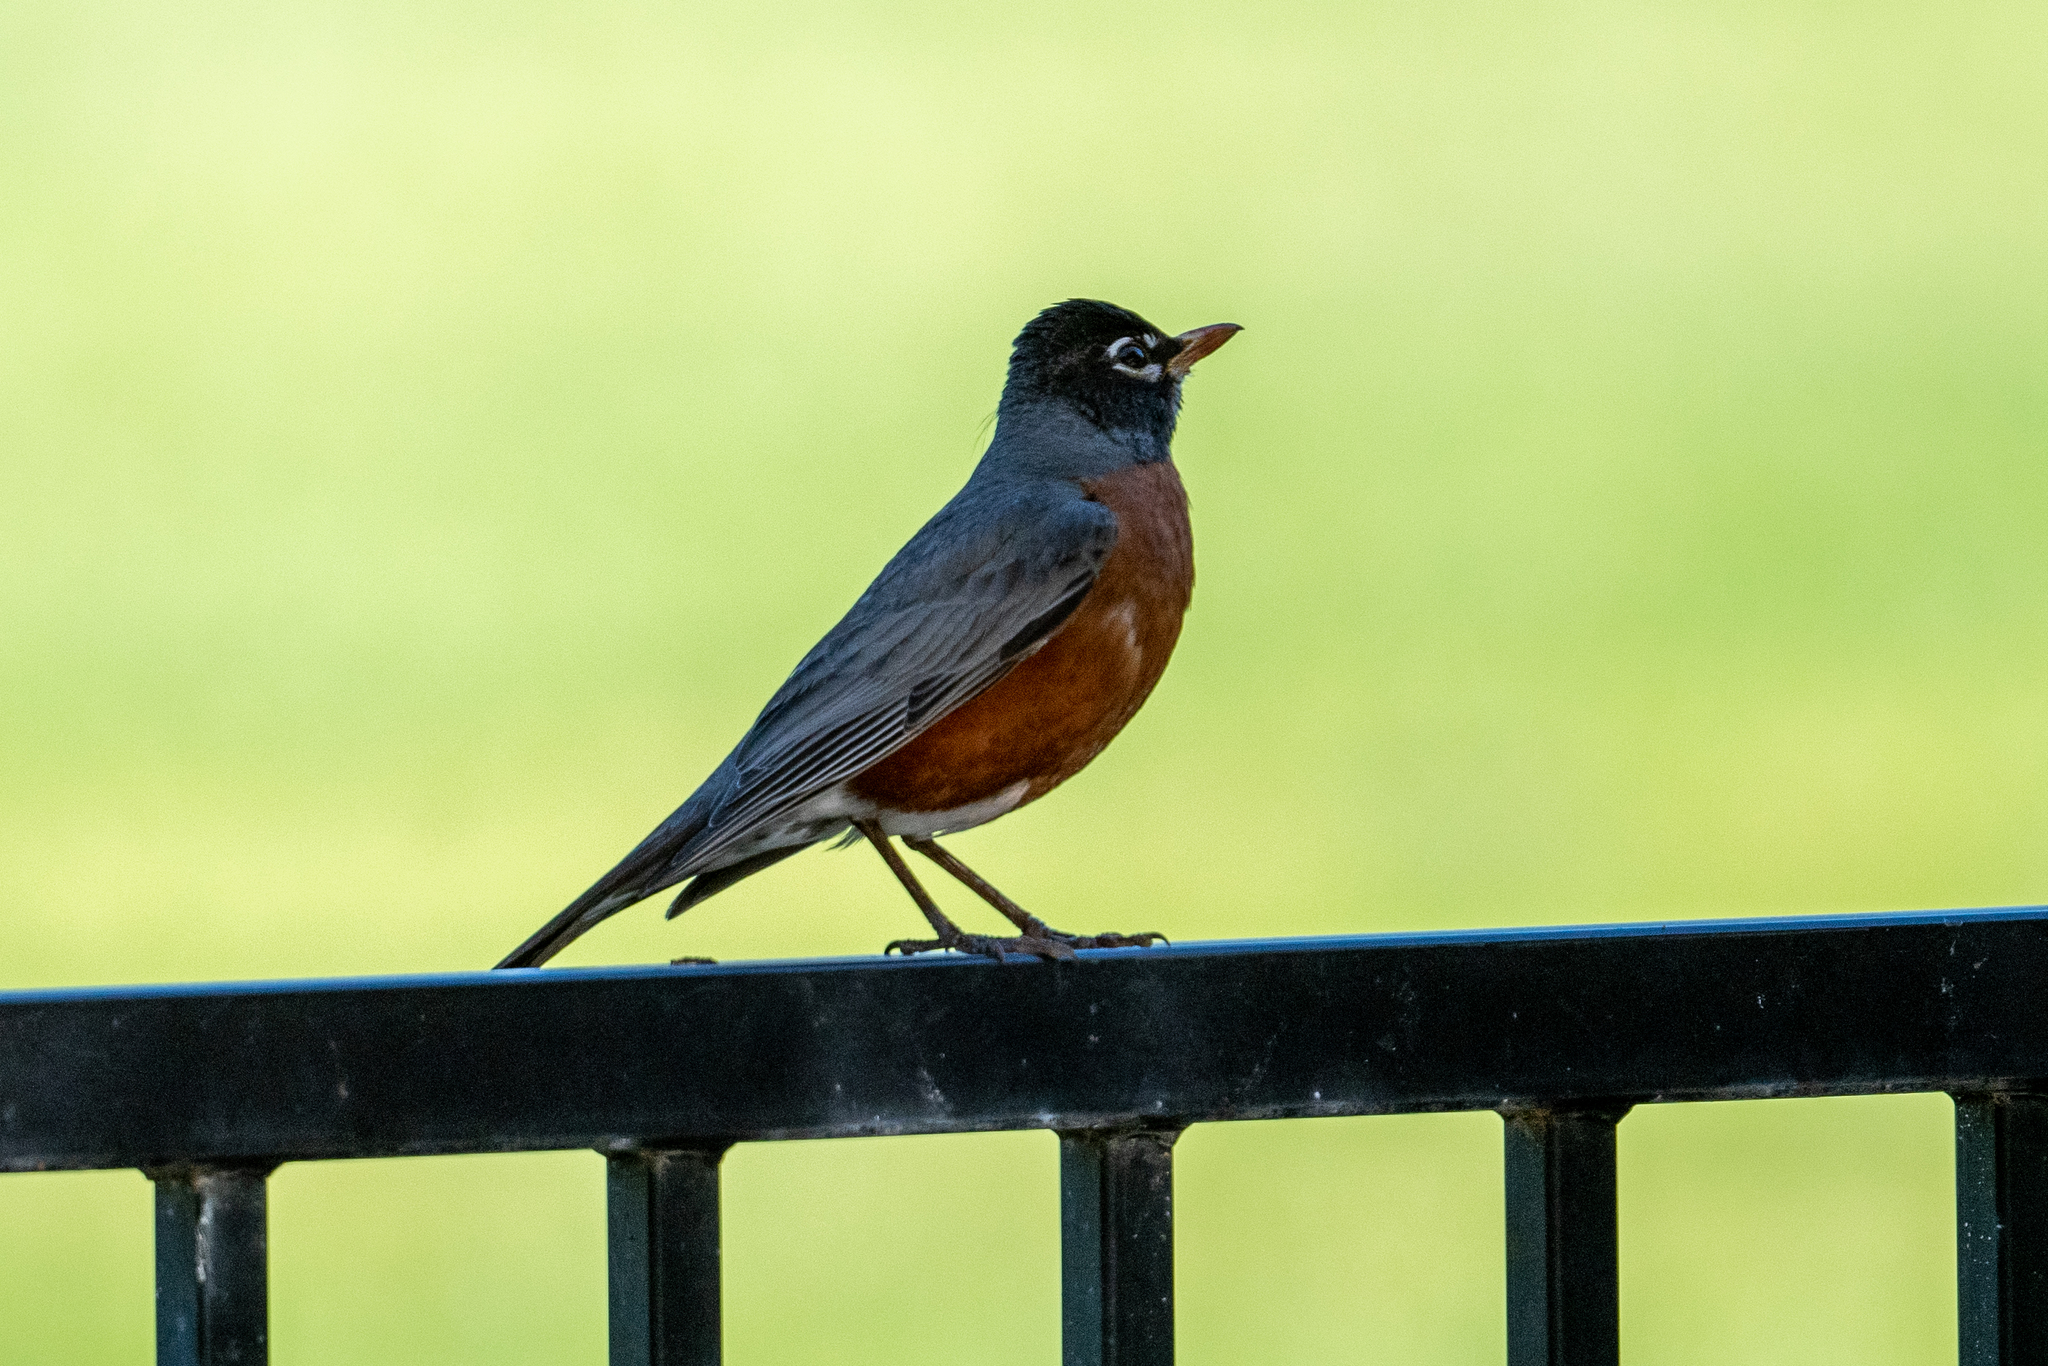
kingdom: Animalia
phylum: Chordata
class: Aves
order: Passeriformes
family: Turdidae
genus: Turdus
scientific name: Turdus migratorius
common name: American robin
